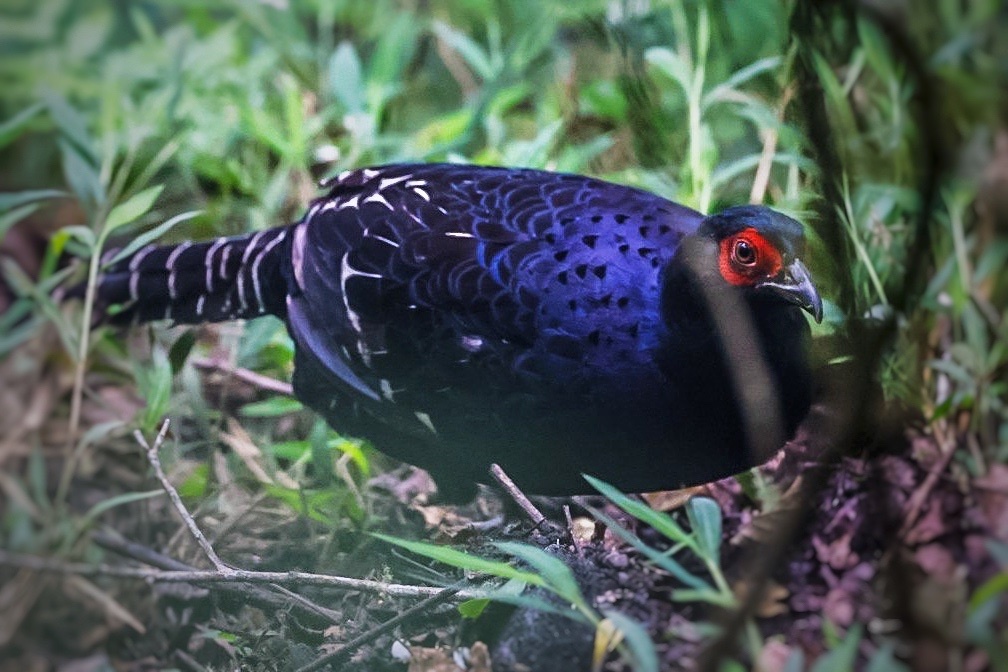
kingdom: Animalia
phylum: Chordata
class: Aves
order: Galliformes
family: Phasianidae
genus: Syrmaticus
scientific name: Syrmaticus mikado
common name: Mikado pheasant
